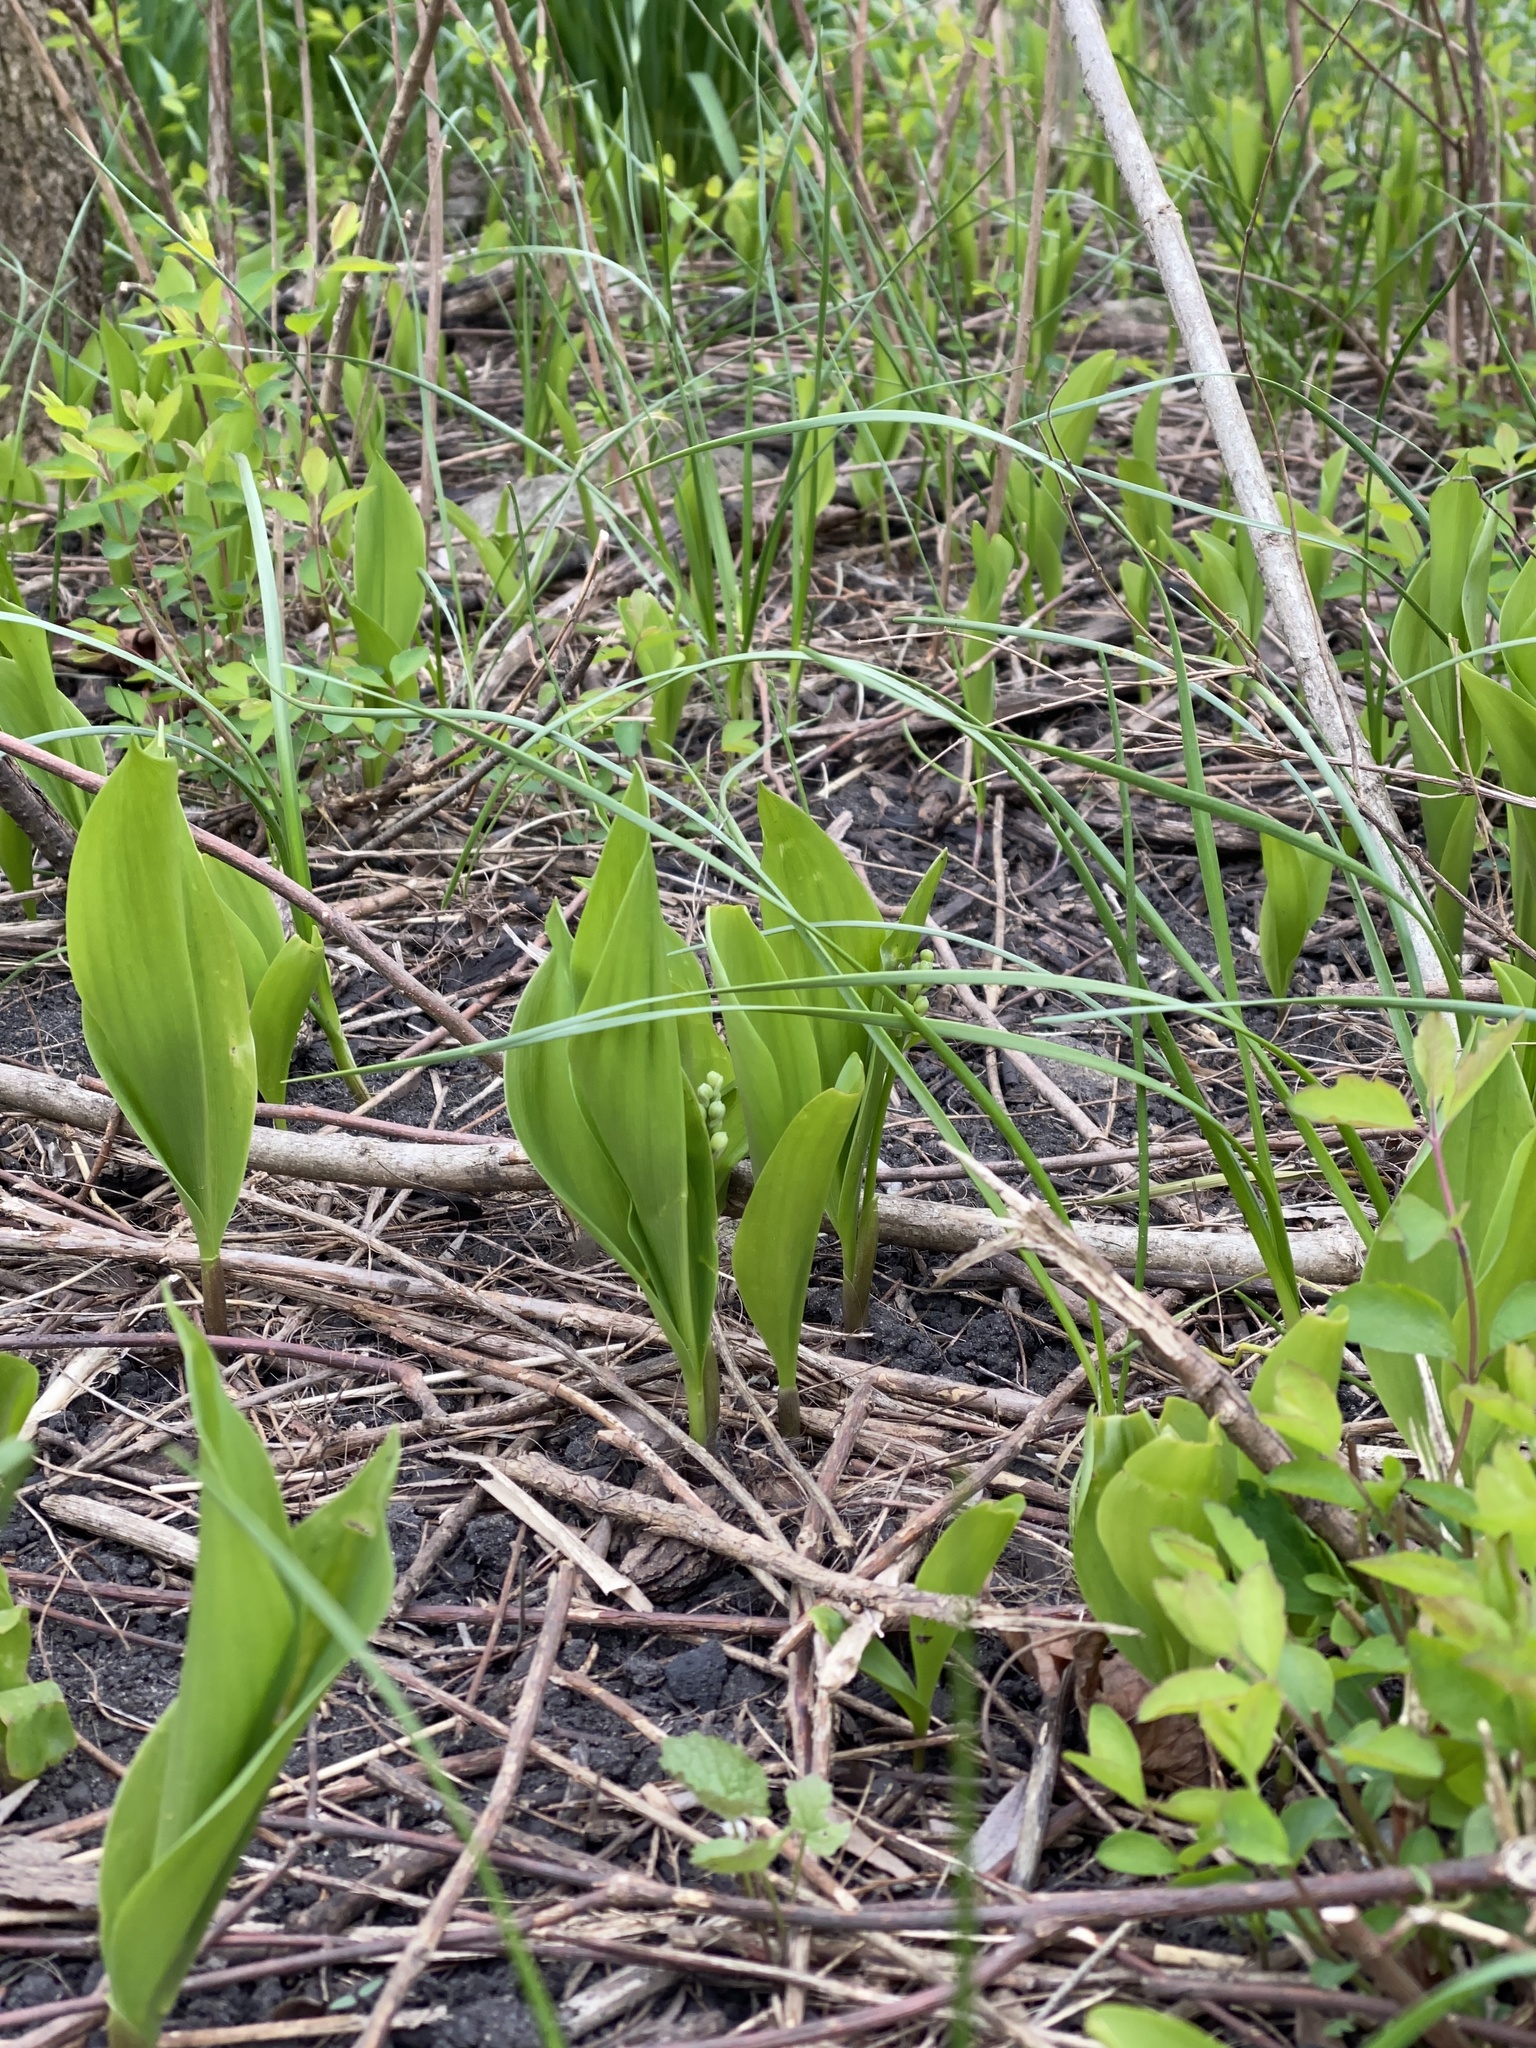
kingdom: Plantae
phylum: Tracheophyta
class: Liliopsida
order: Asparagales
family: Asparagaceae
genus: Convallaria
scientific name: Convallaria majalis
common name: Lily-of-the-valley
